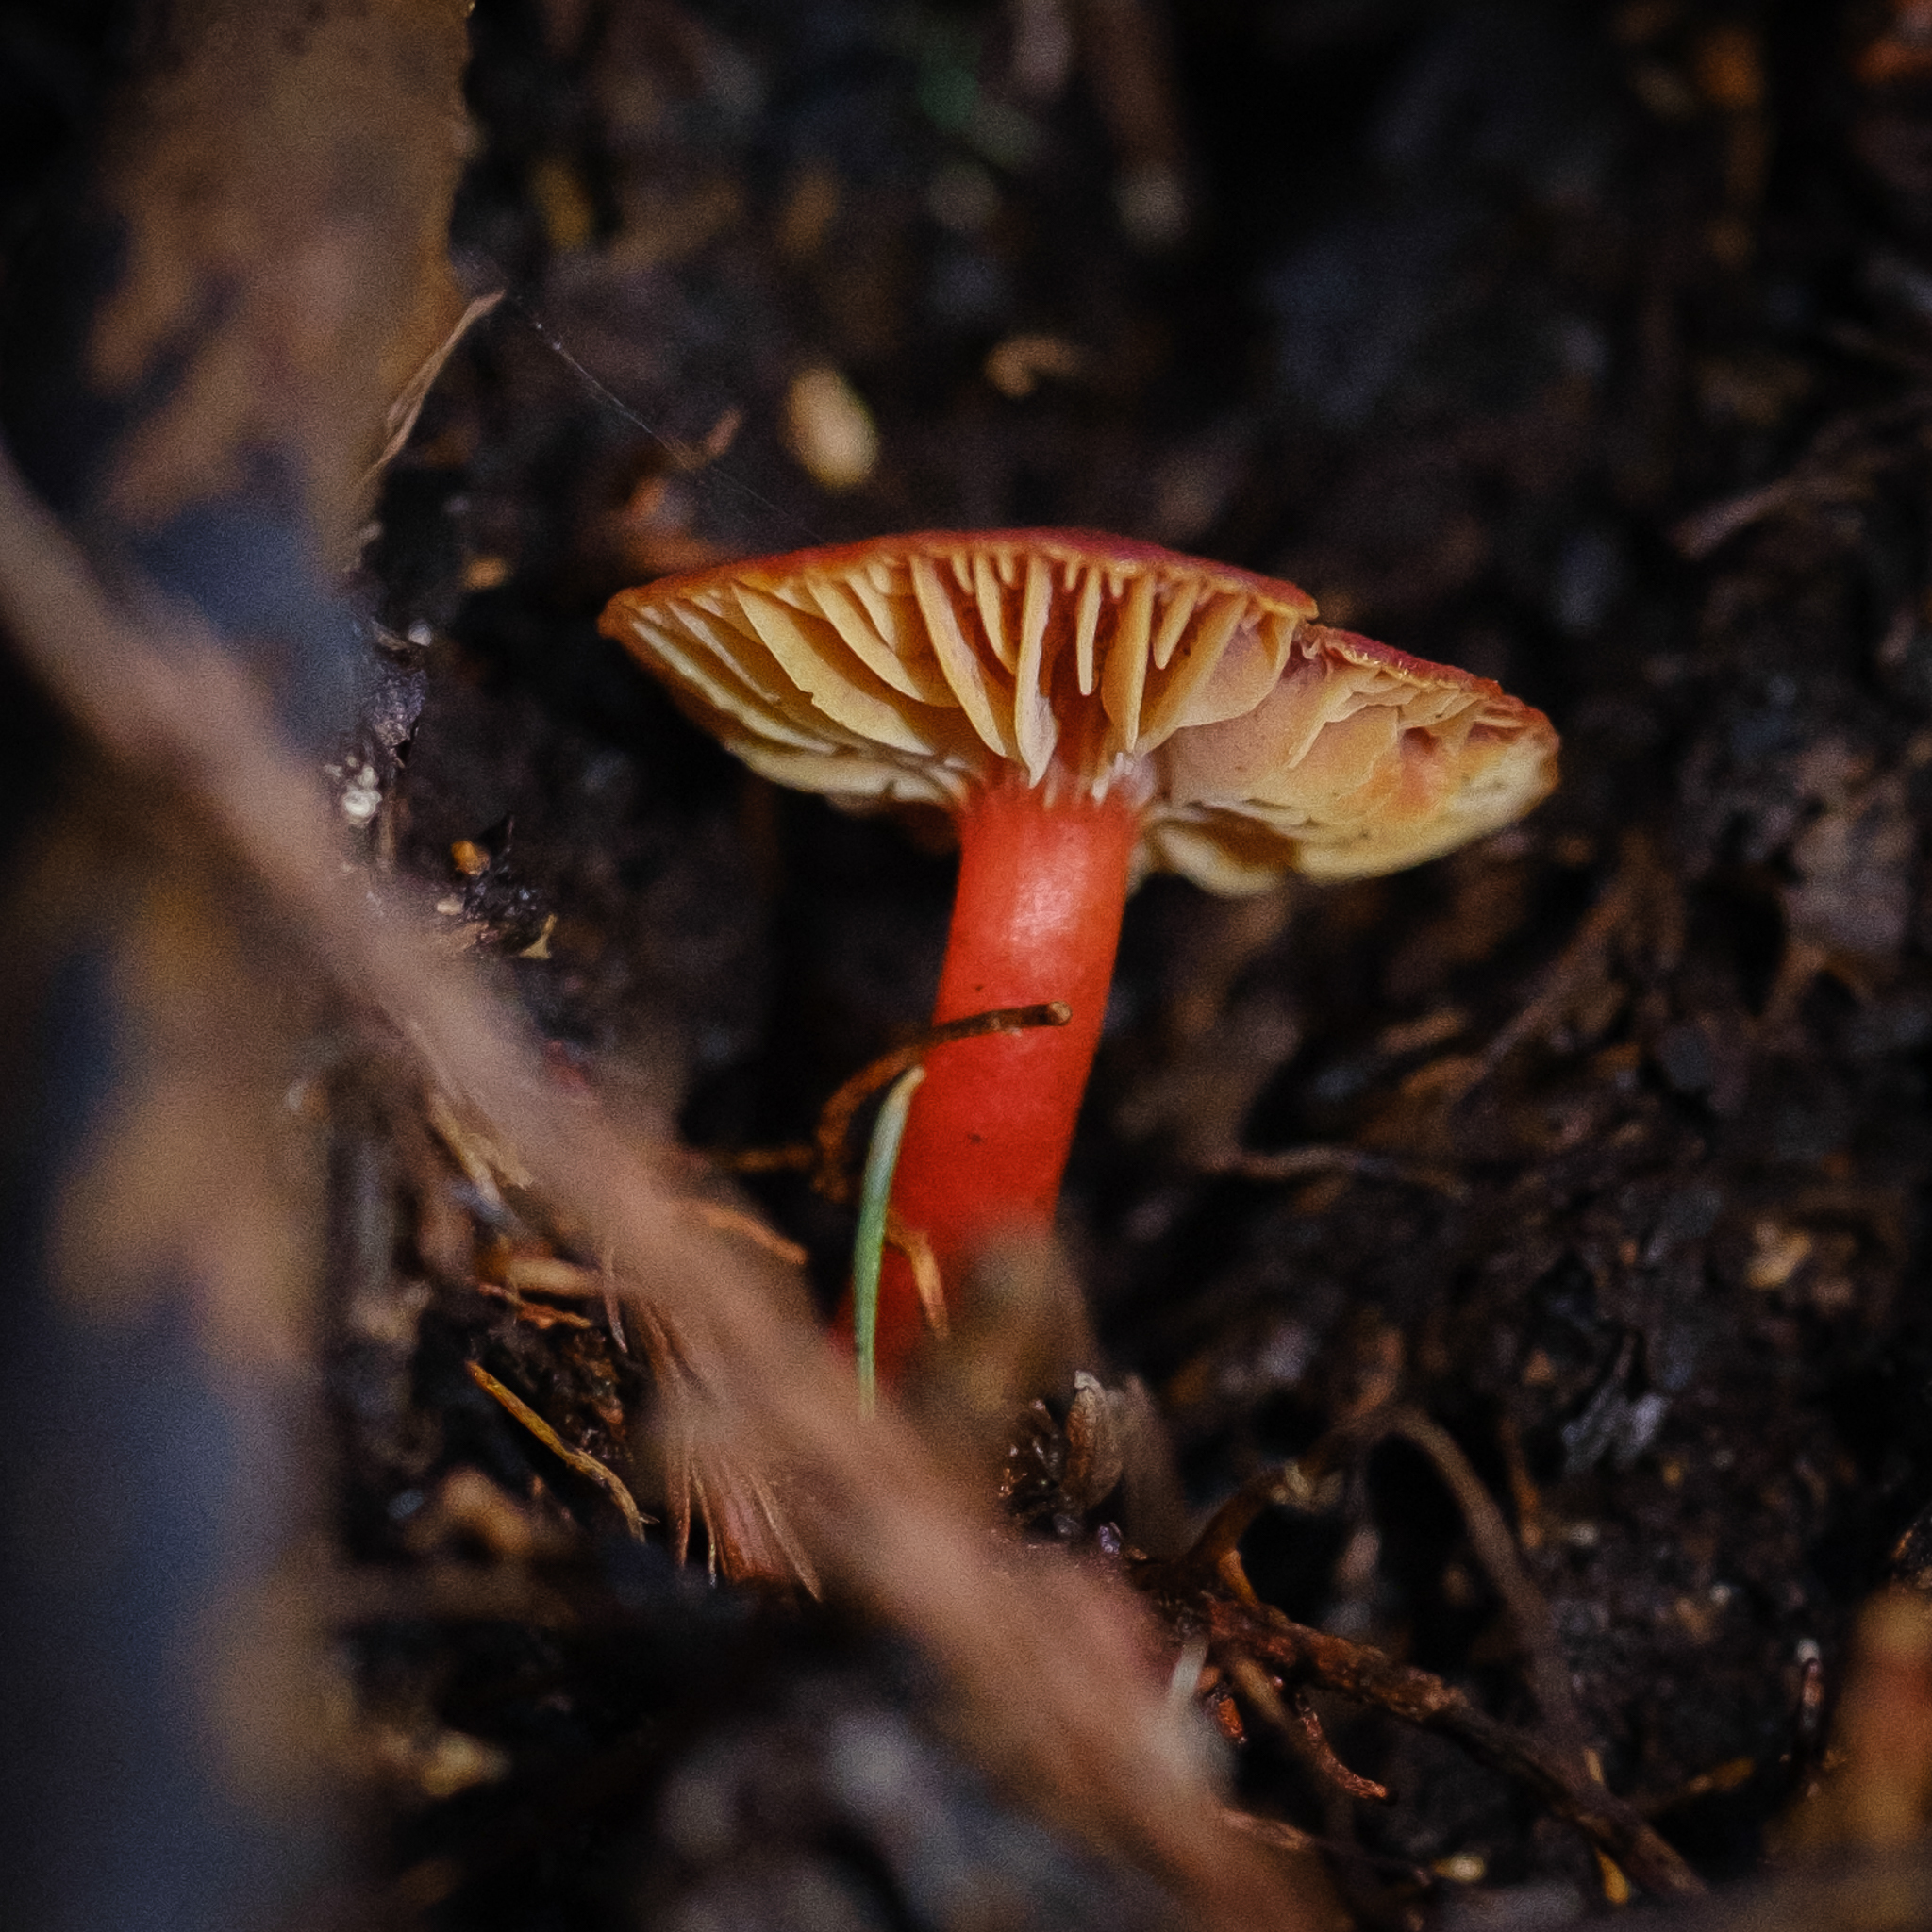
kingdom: Fungi
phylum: Basidiomycota
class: Agaricomycetes
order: Agaricales
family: Hygrophoraceae
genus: Hygrocybe
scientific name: Hygrocybe coccinea
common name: Scarlet hood
